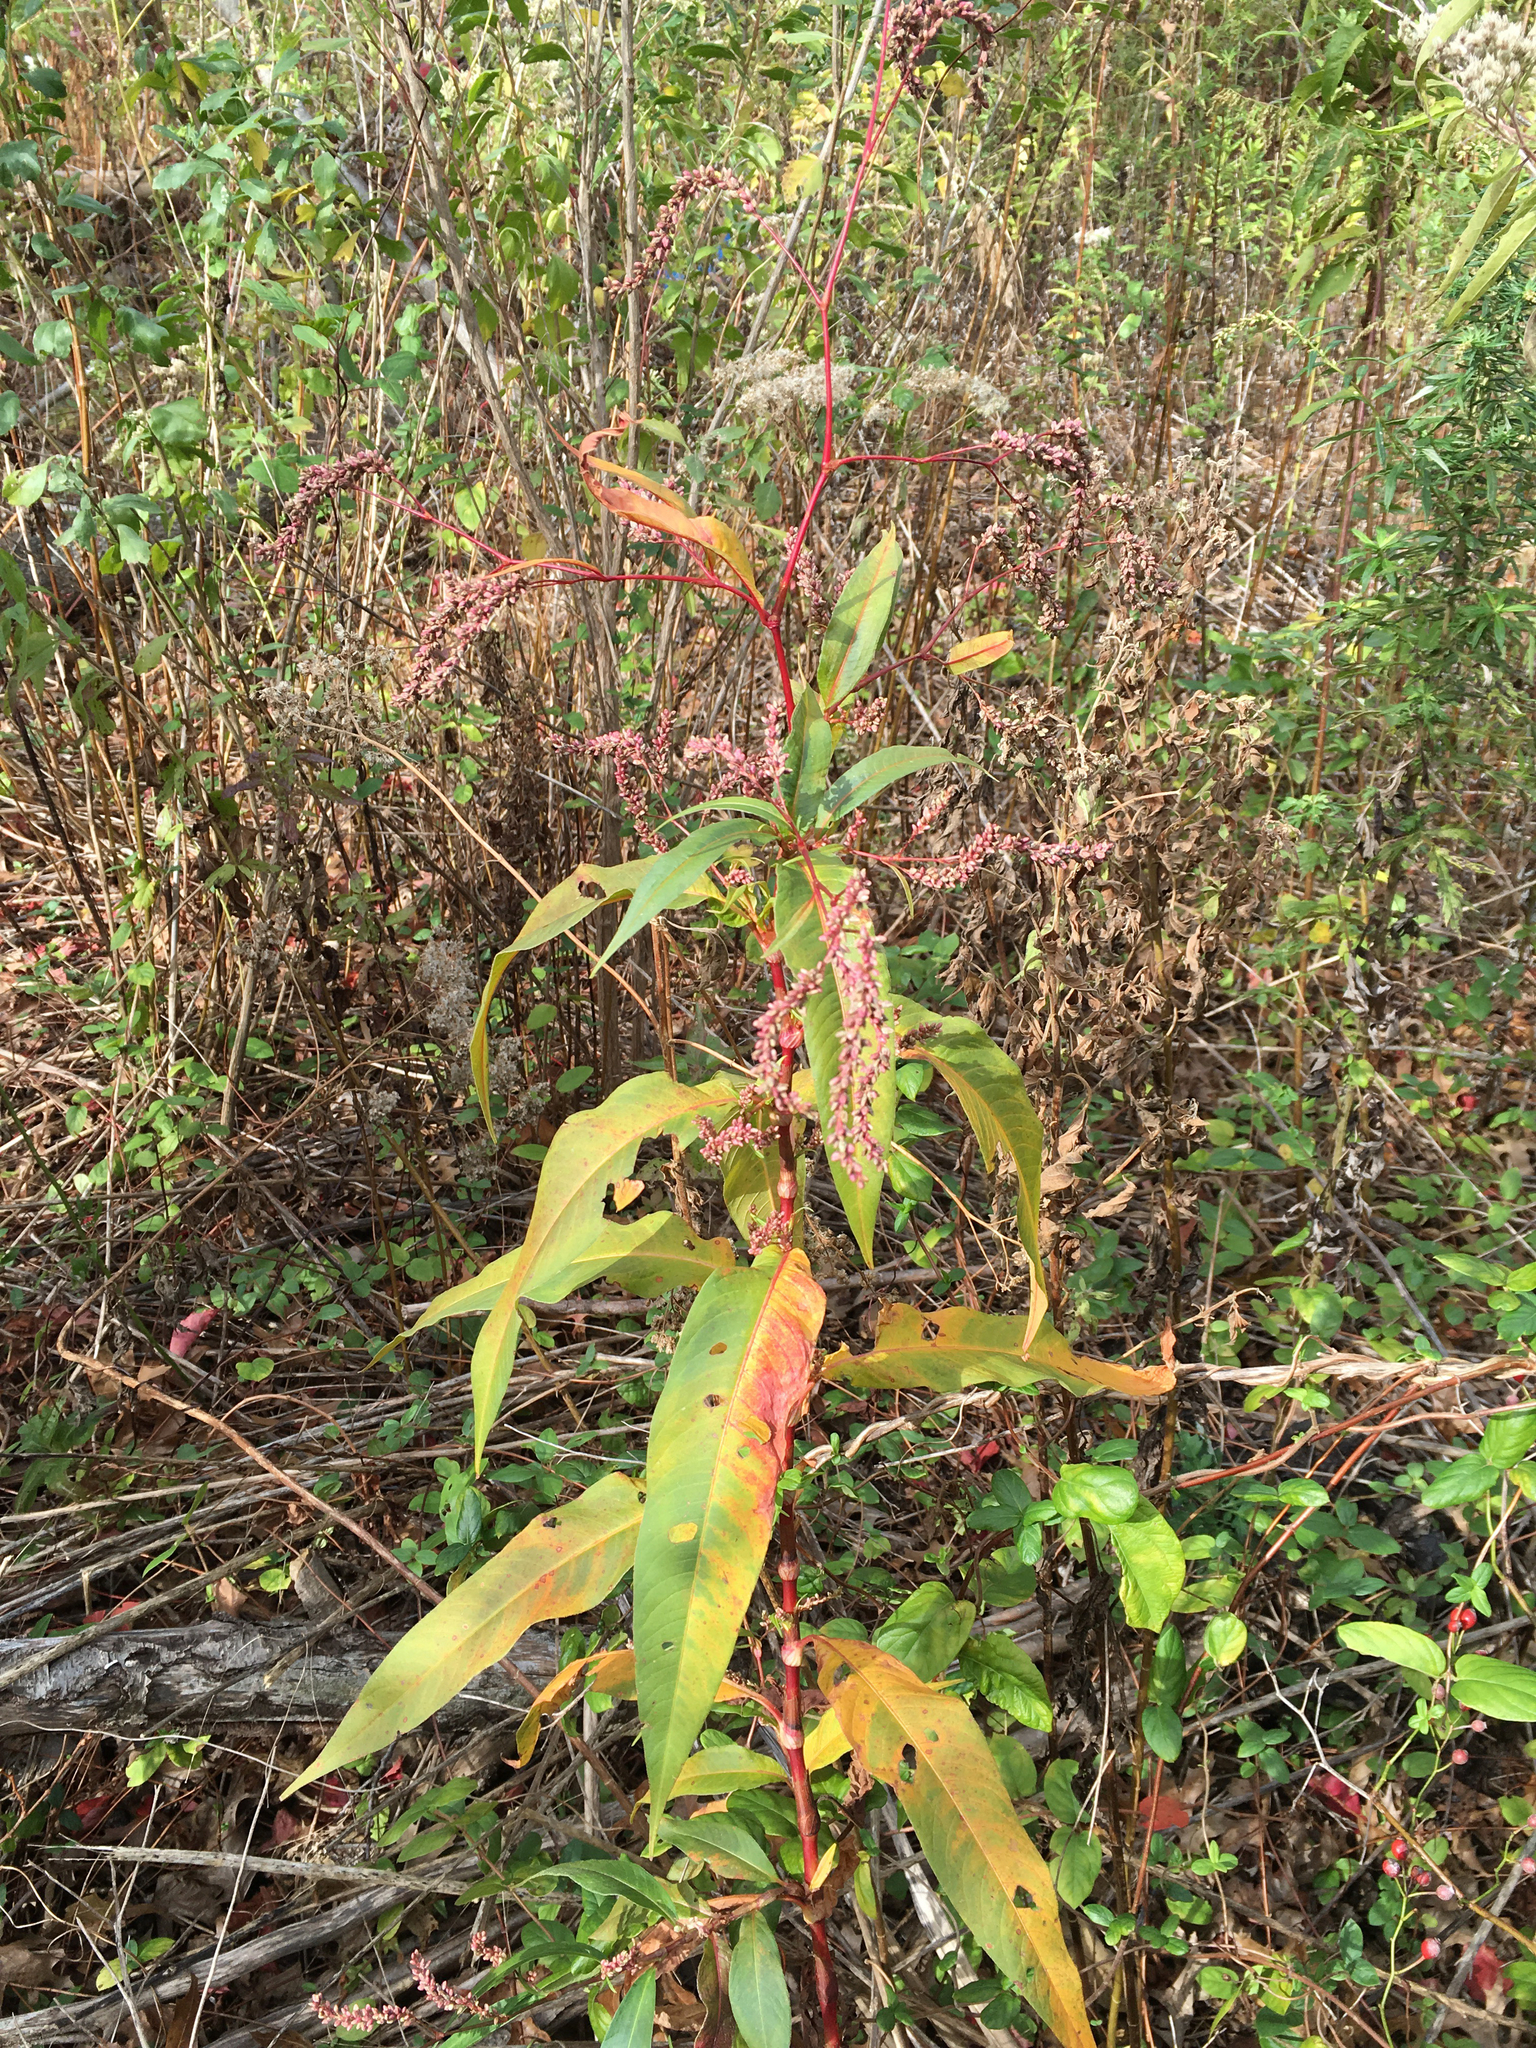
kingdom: Plantae
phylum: Tracheophyta
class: Magnoliopsida
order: Caryophyllales
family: Polygonaceae
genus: Persicaria
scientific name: Persicaria extremiorientalis
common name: Far-eastern smartweed
